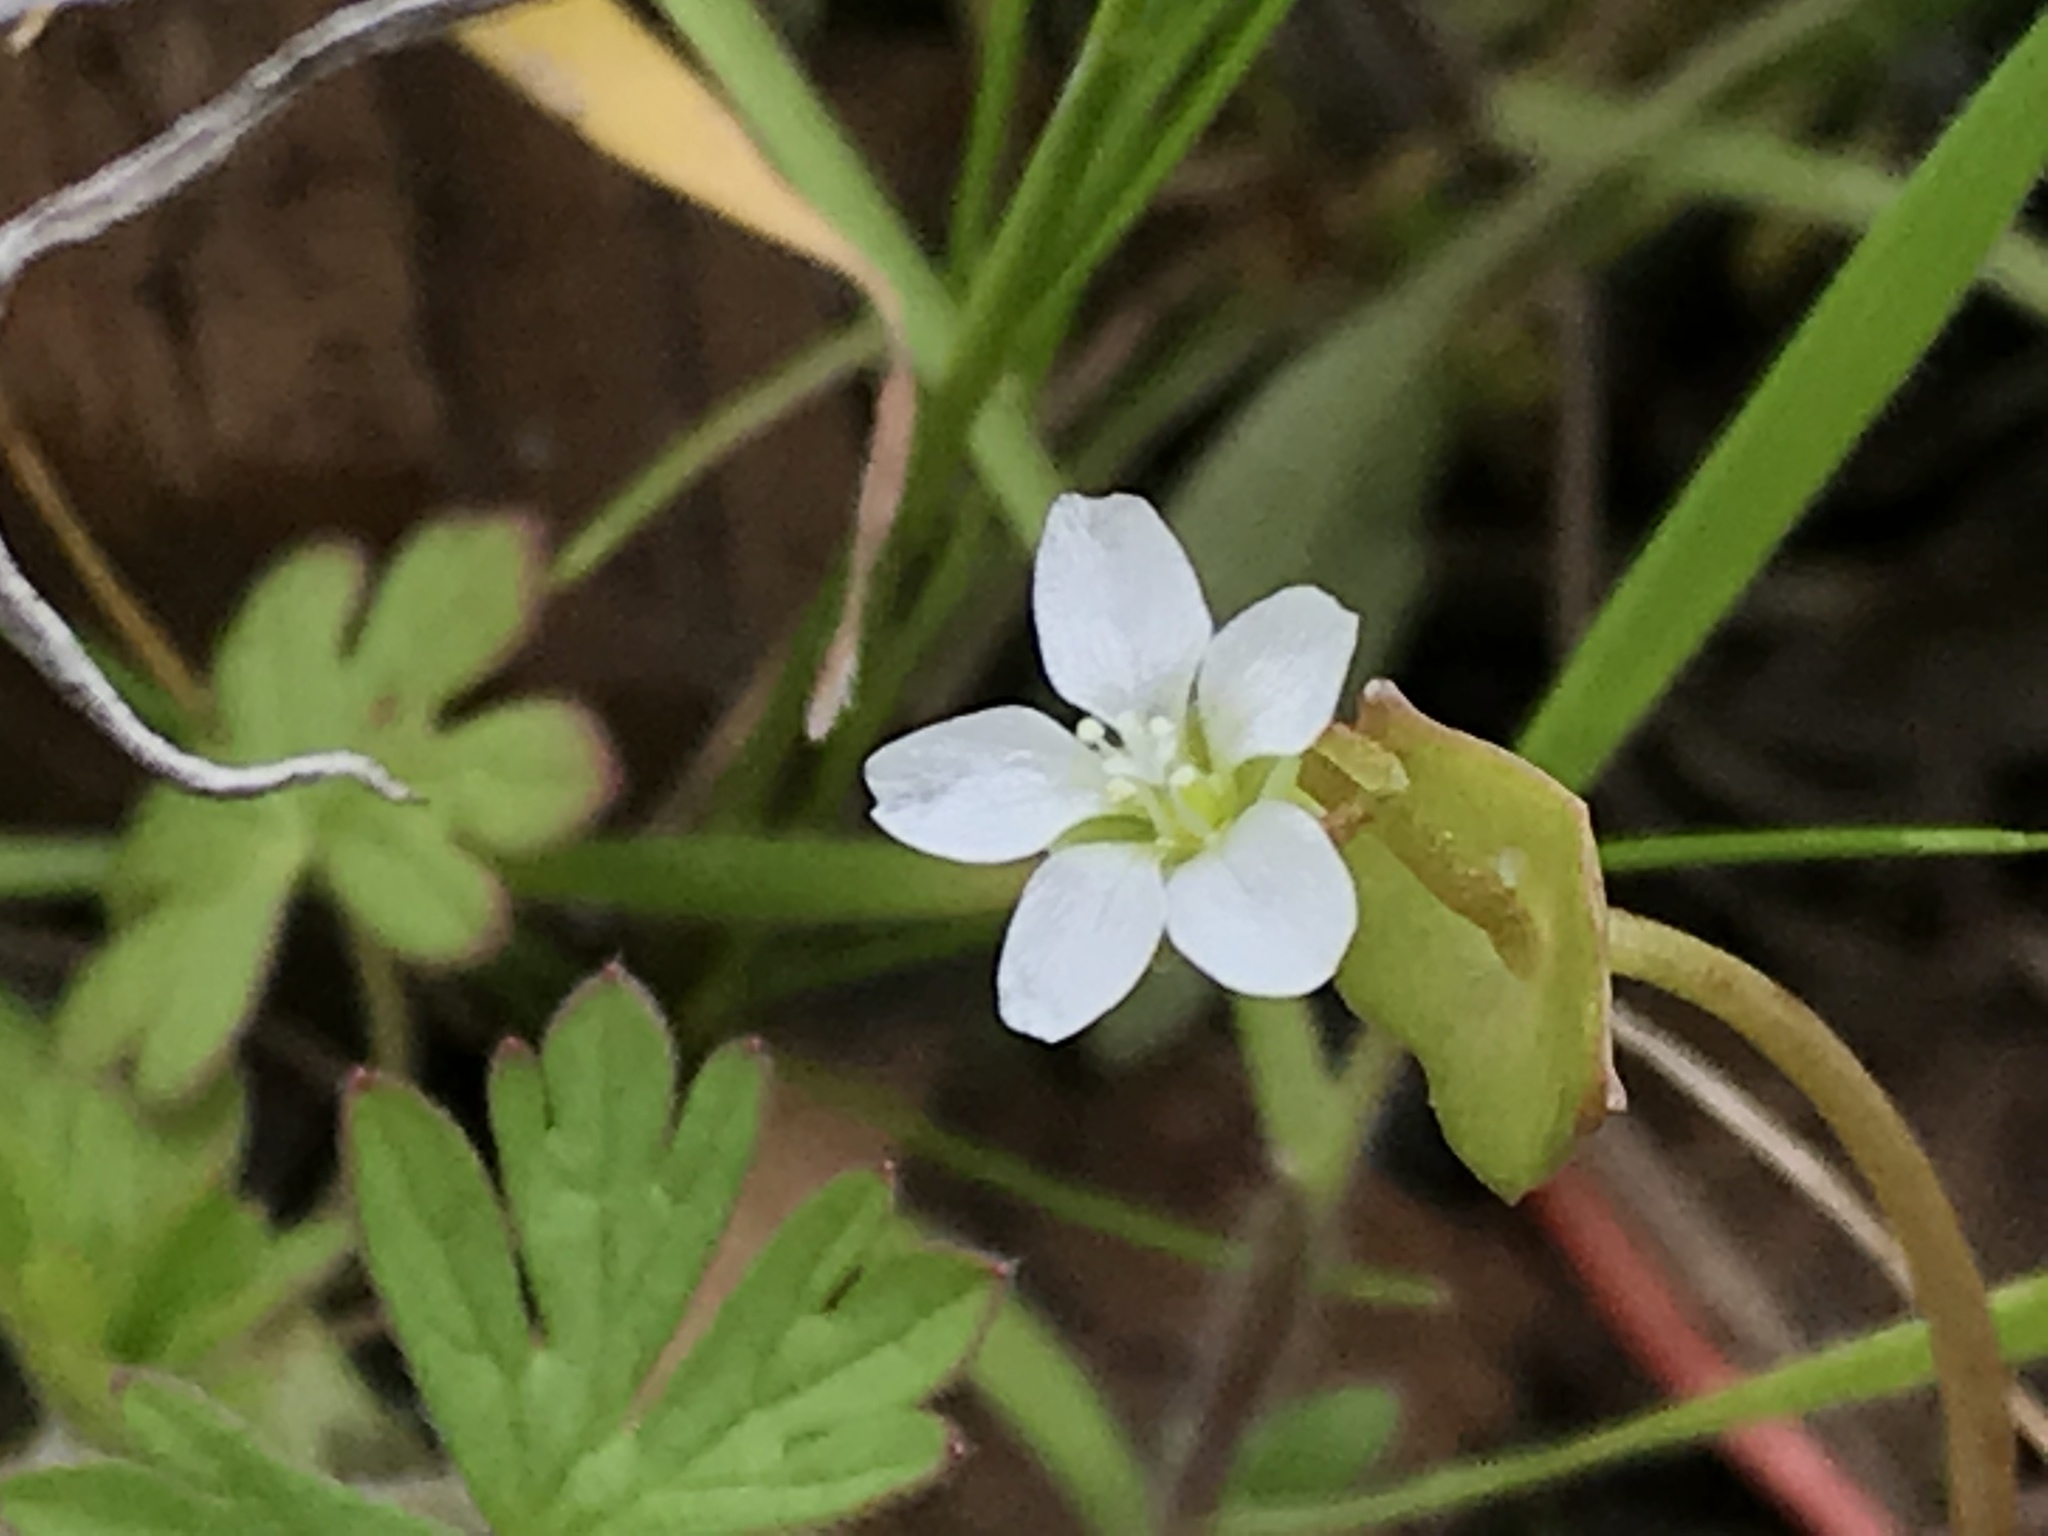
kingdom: Plantae
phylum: Tracheophyta
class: Magnoliopsida
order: Caryophyllales
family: Montiaceae
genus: Claytonia
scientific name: Claytonia perfoliata
